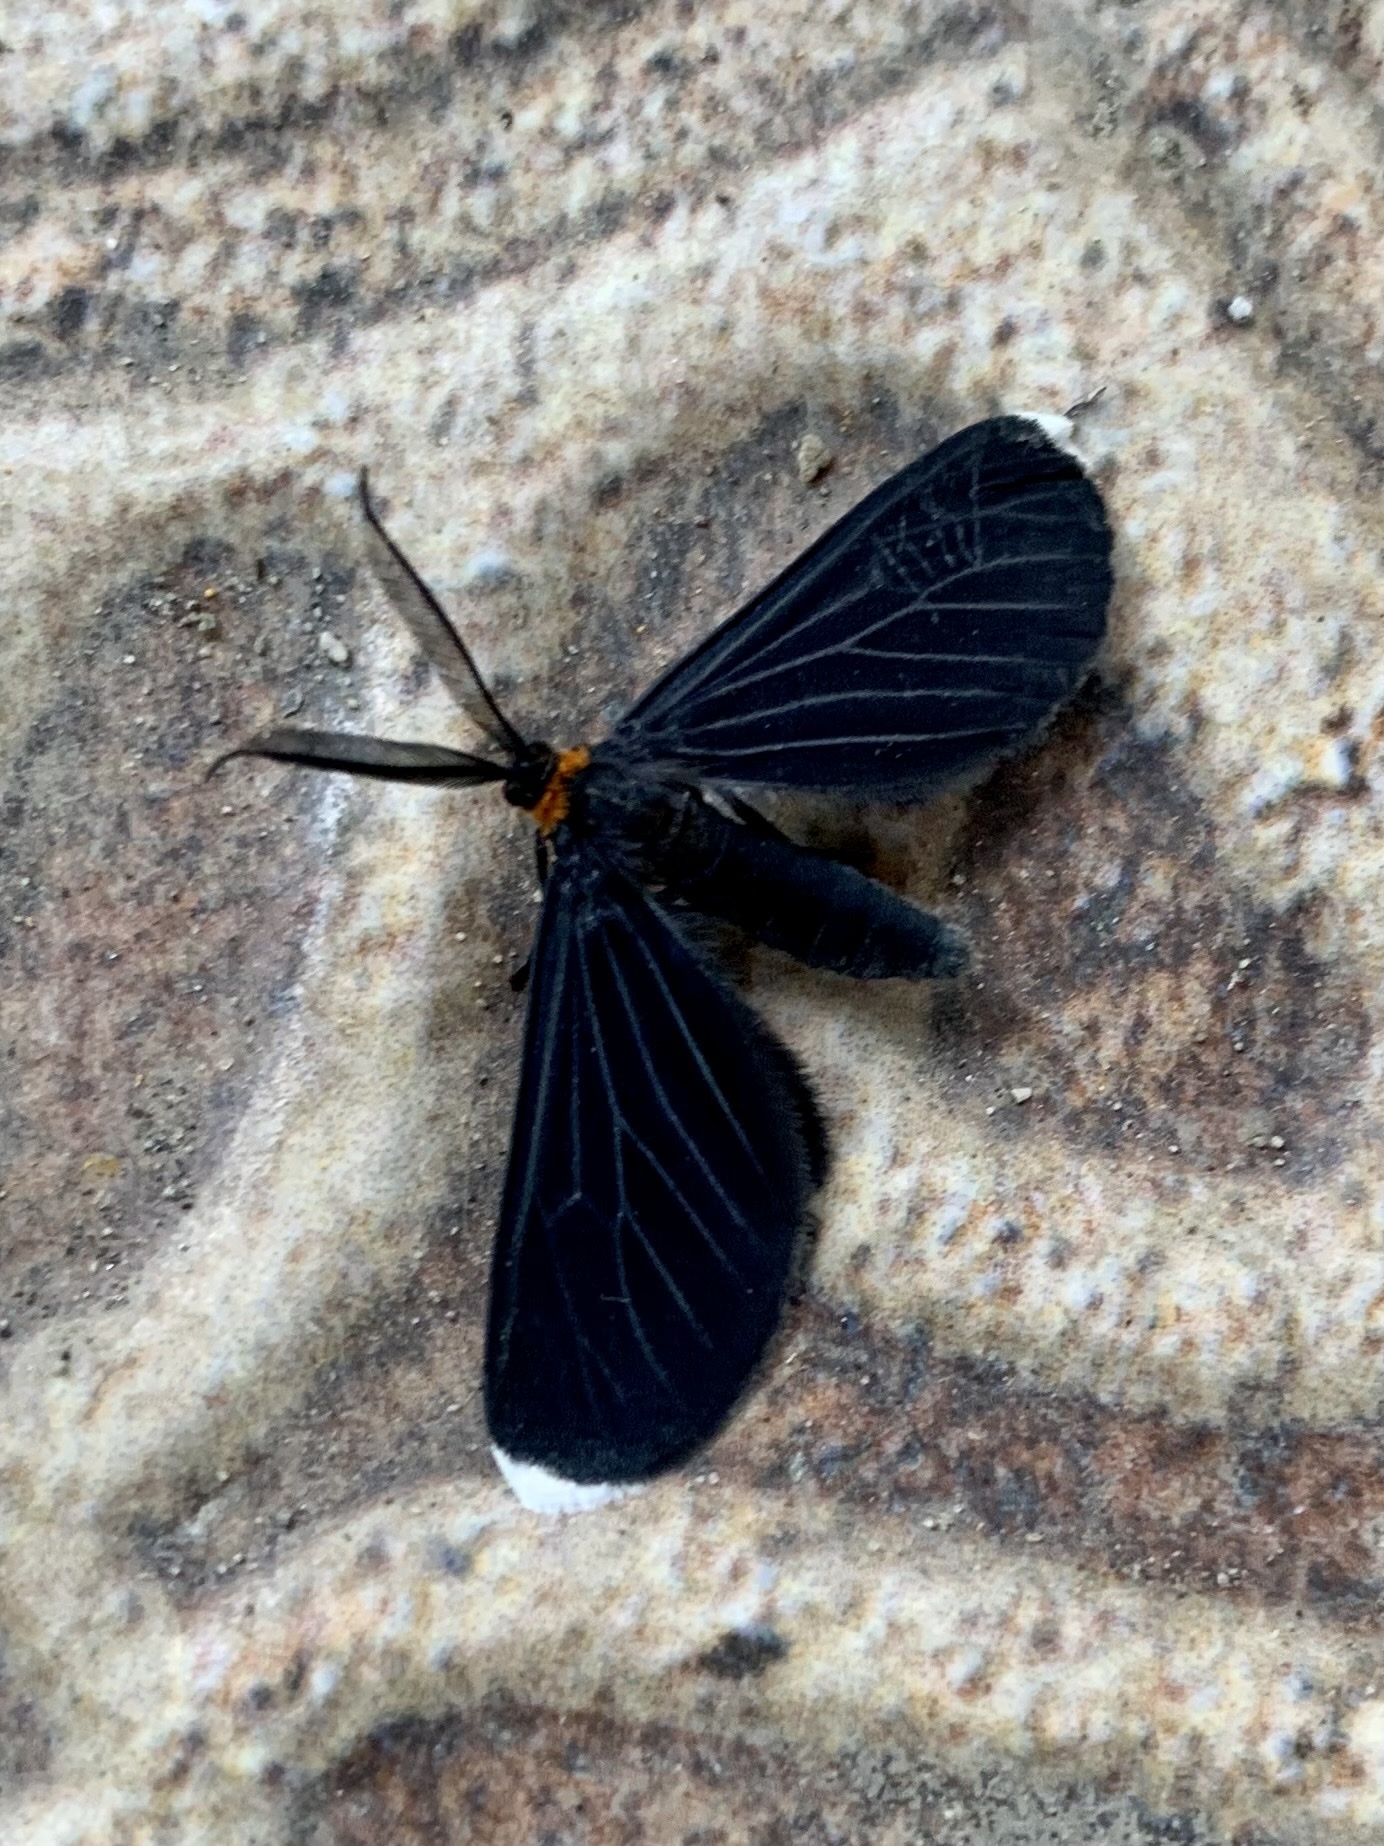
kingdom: Animalia
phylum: Arthropoda
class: Insecta
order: Lepidoptera
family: Geometridae
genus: Melanchroia
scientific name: Melanchroia chephise
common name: White-tipped black
